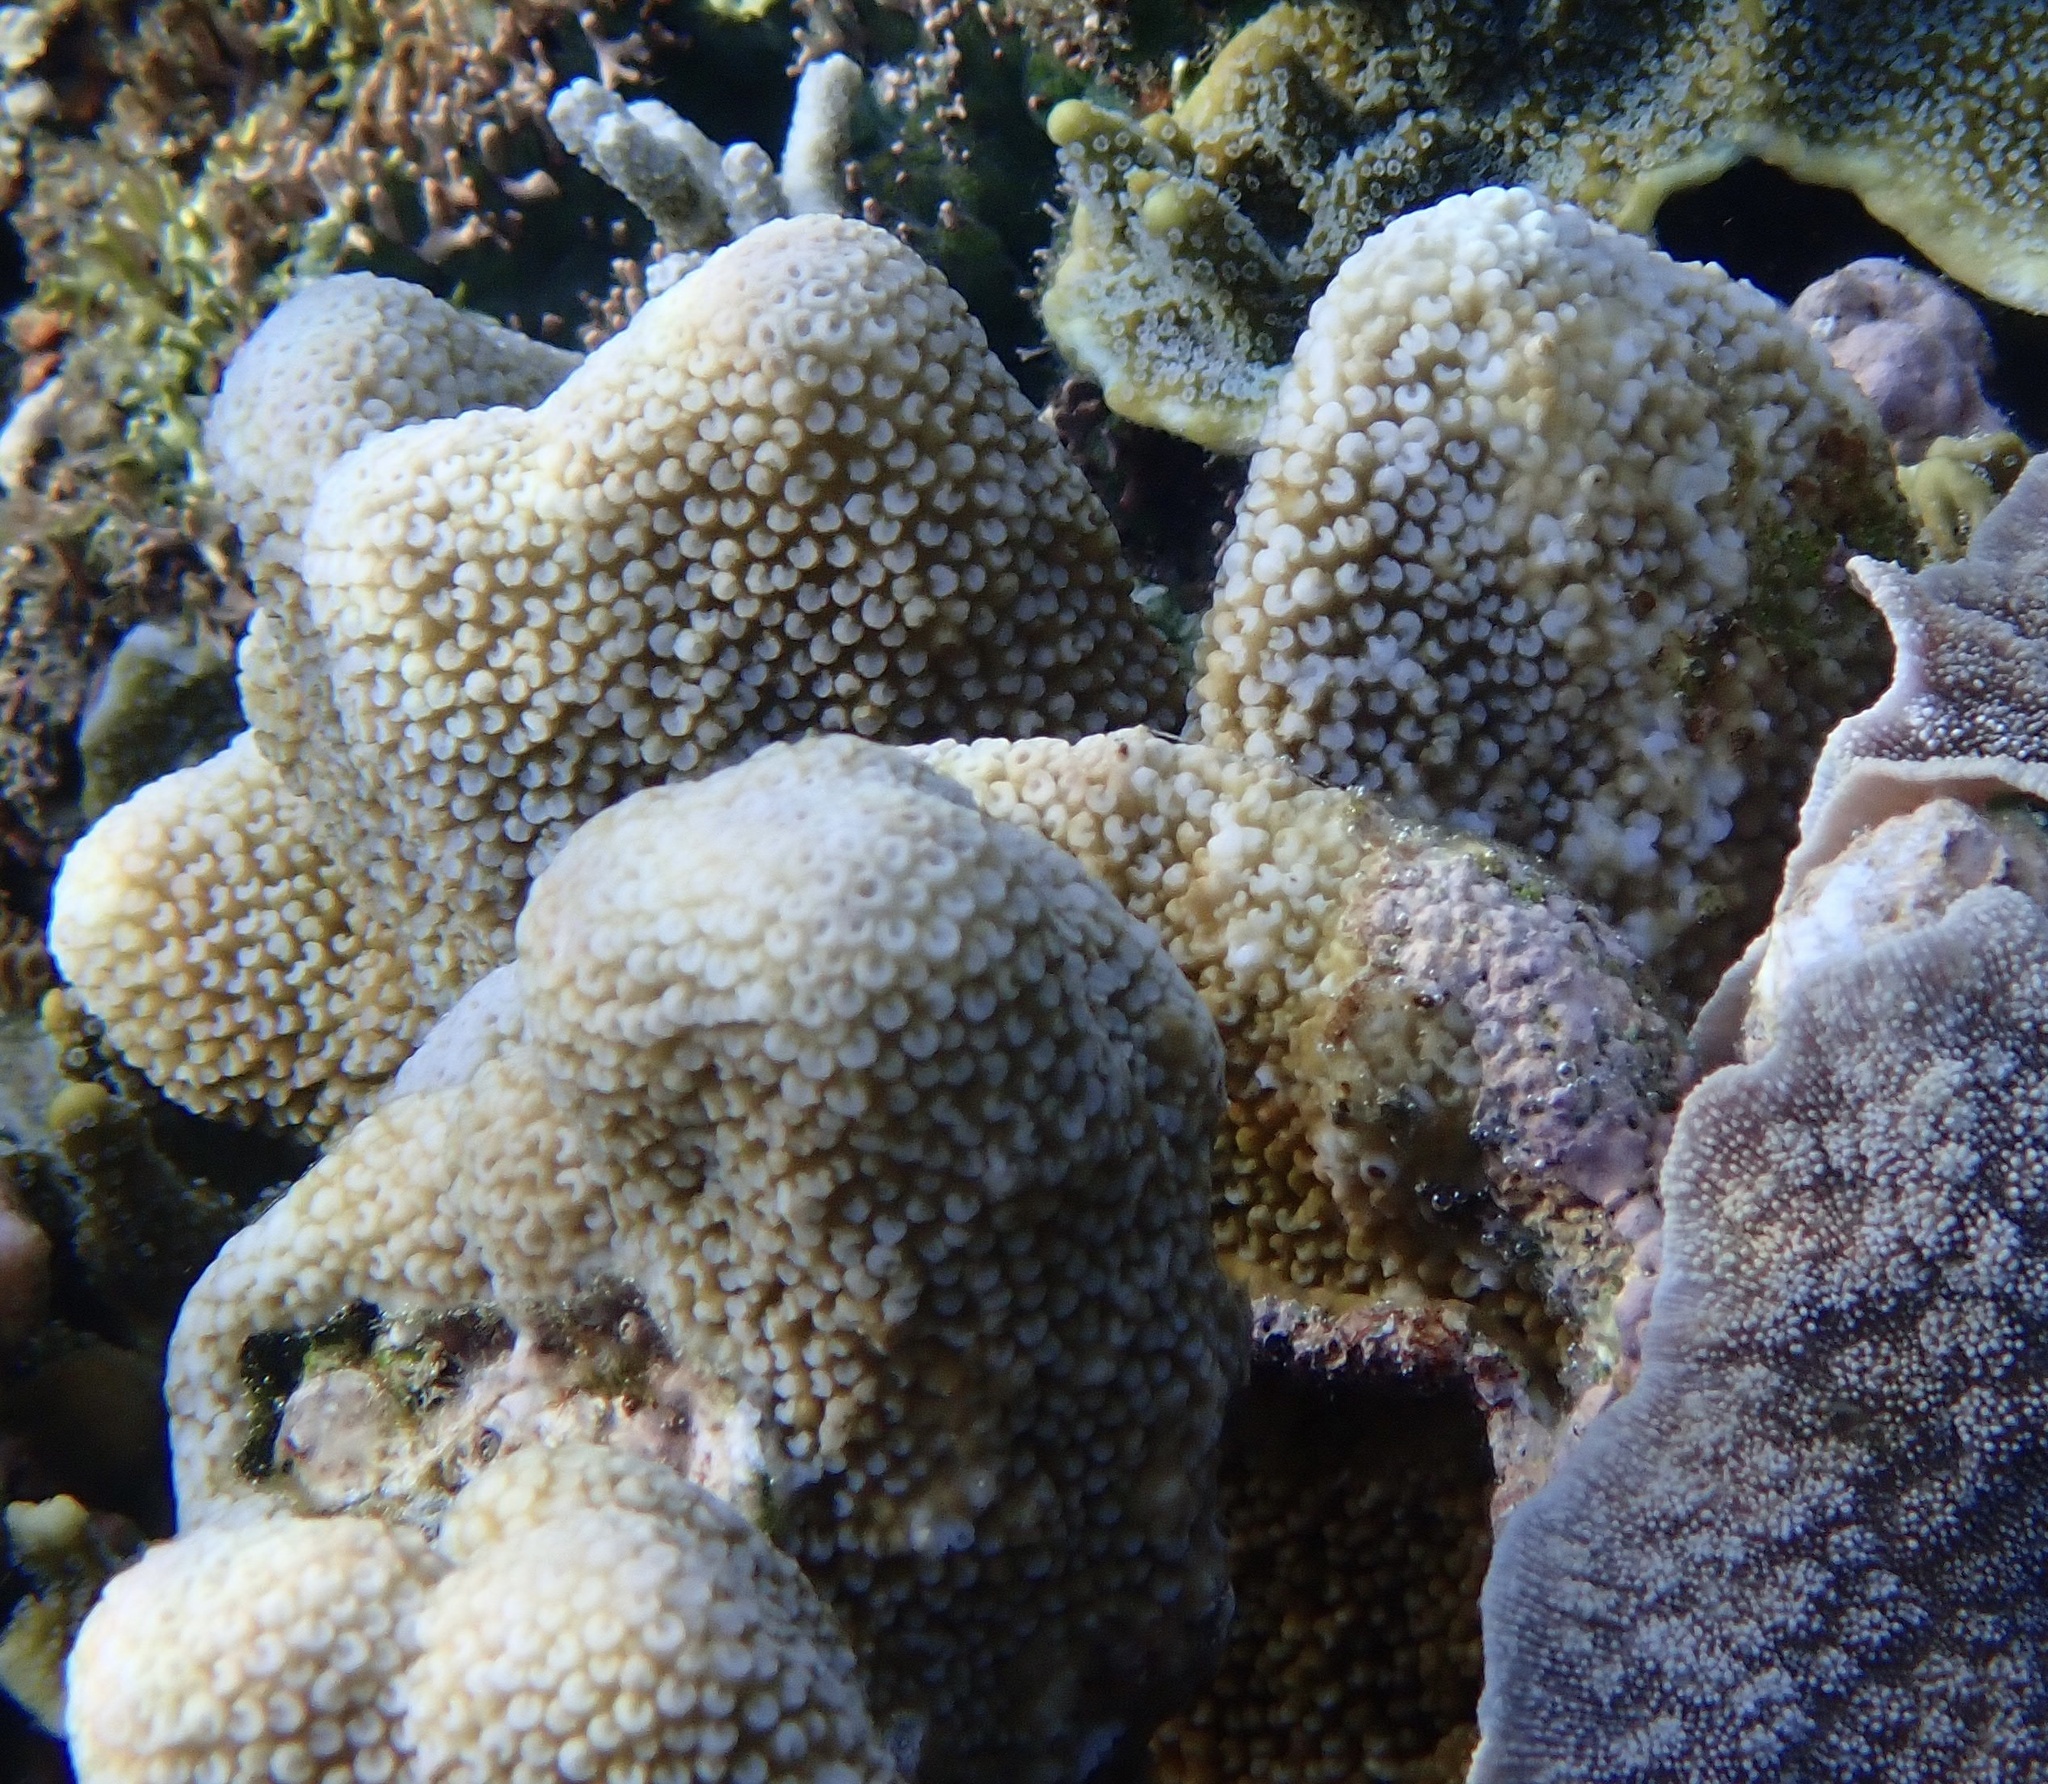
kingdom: Animalia
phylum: Cnidaria
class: Anthozoa
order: Scleractinia
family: Acroporidae
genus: Isopora
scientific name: Isopora palifera
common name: Catch bowl coral
